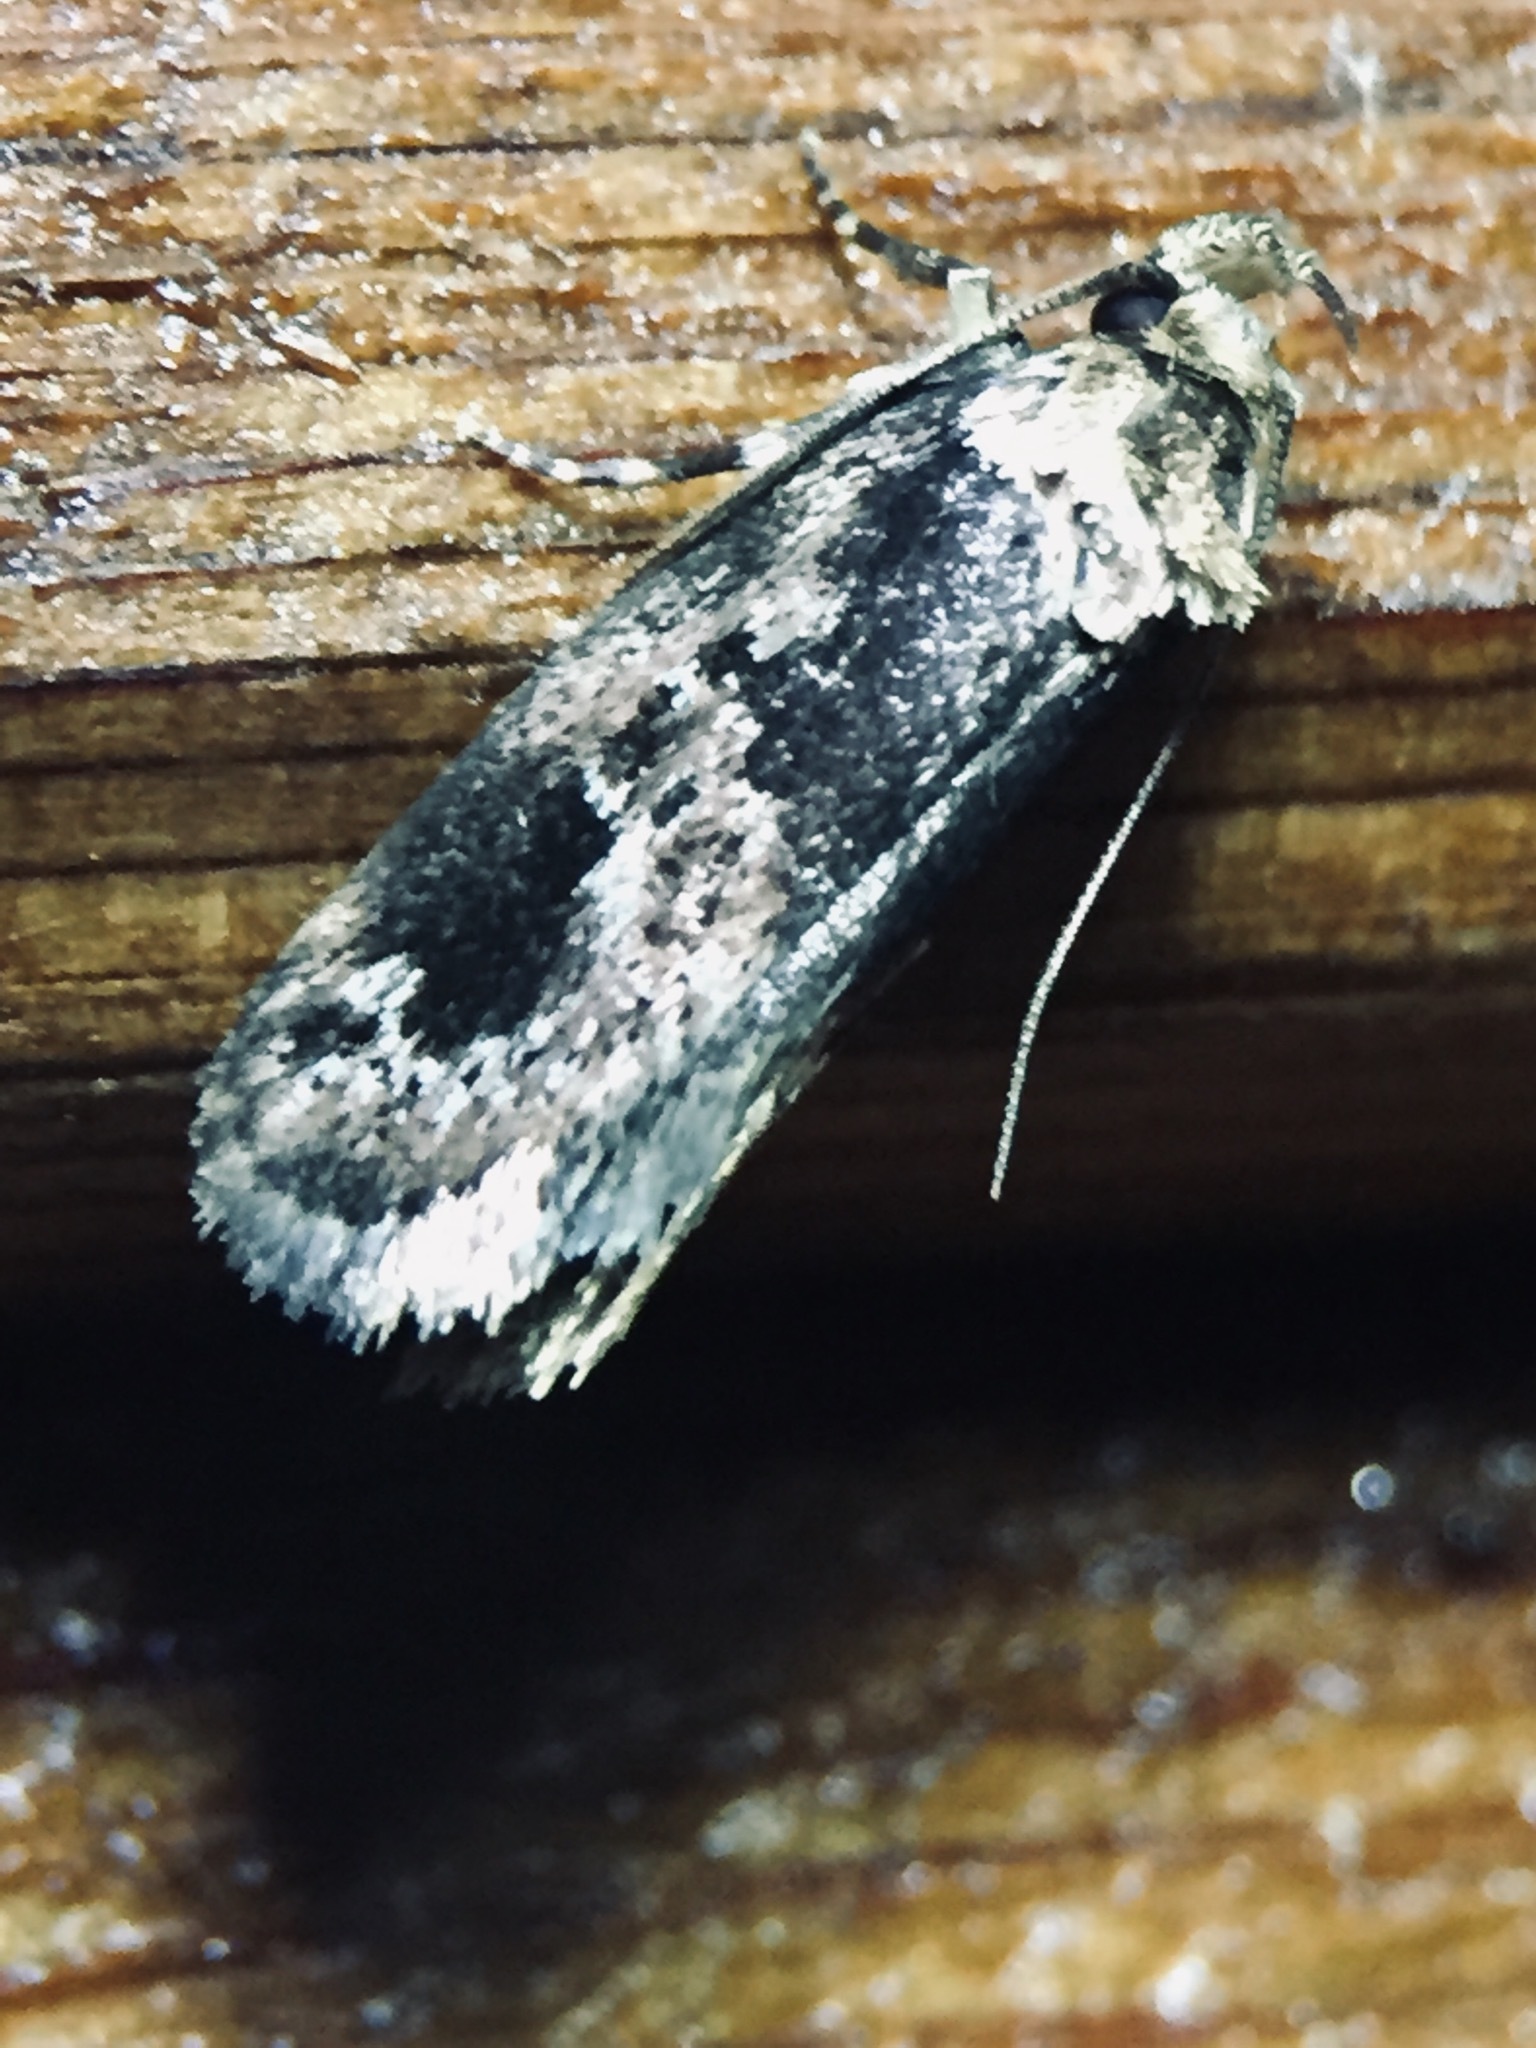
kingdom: Animalia
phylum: Arthropoda
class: Insecta
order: Lepidoptera
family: Oecophoridae
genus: Barea
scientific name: Barea consignatella
